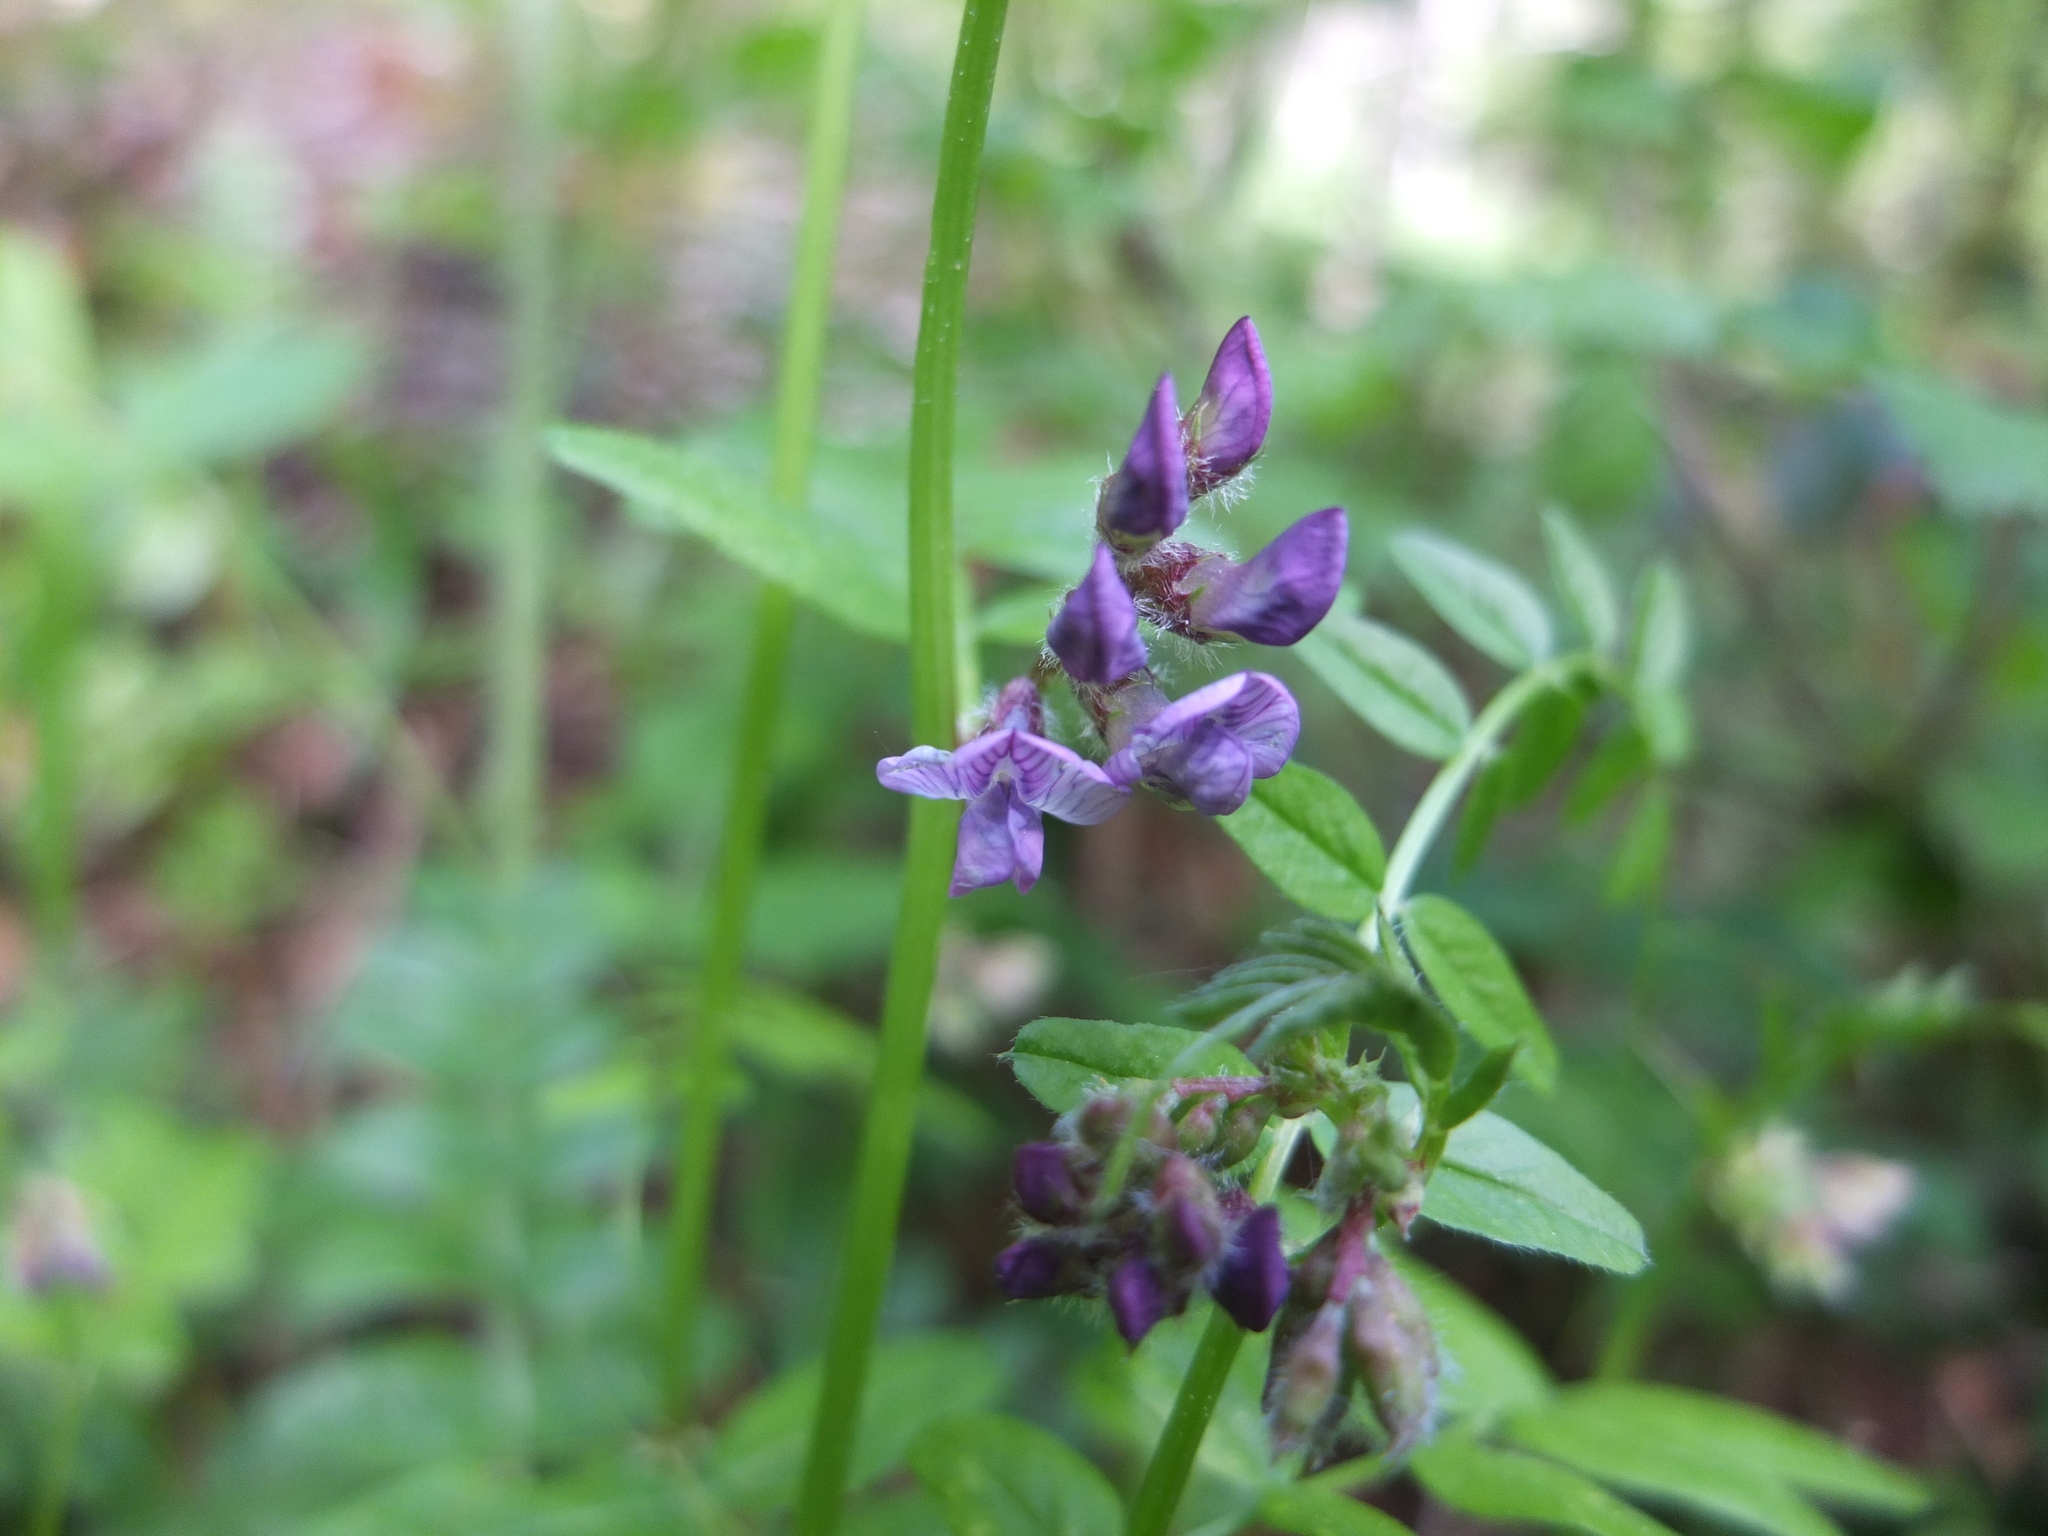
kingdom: Plantae
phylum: Tracheophyta
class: Magnoliopsida
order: Fabales
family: Fabaceae
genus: Vicia
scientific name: Vicia sepium
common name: Bush vetch
